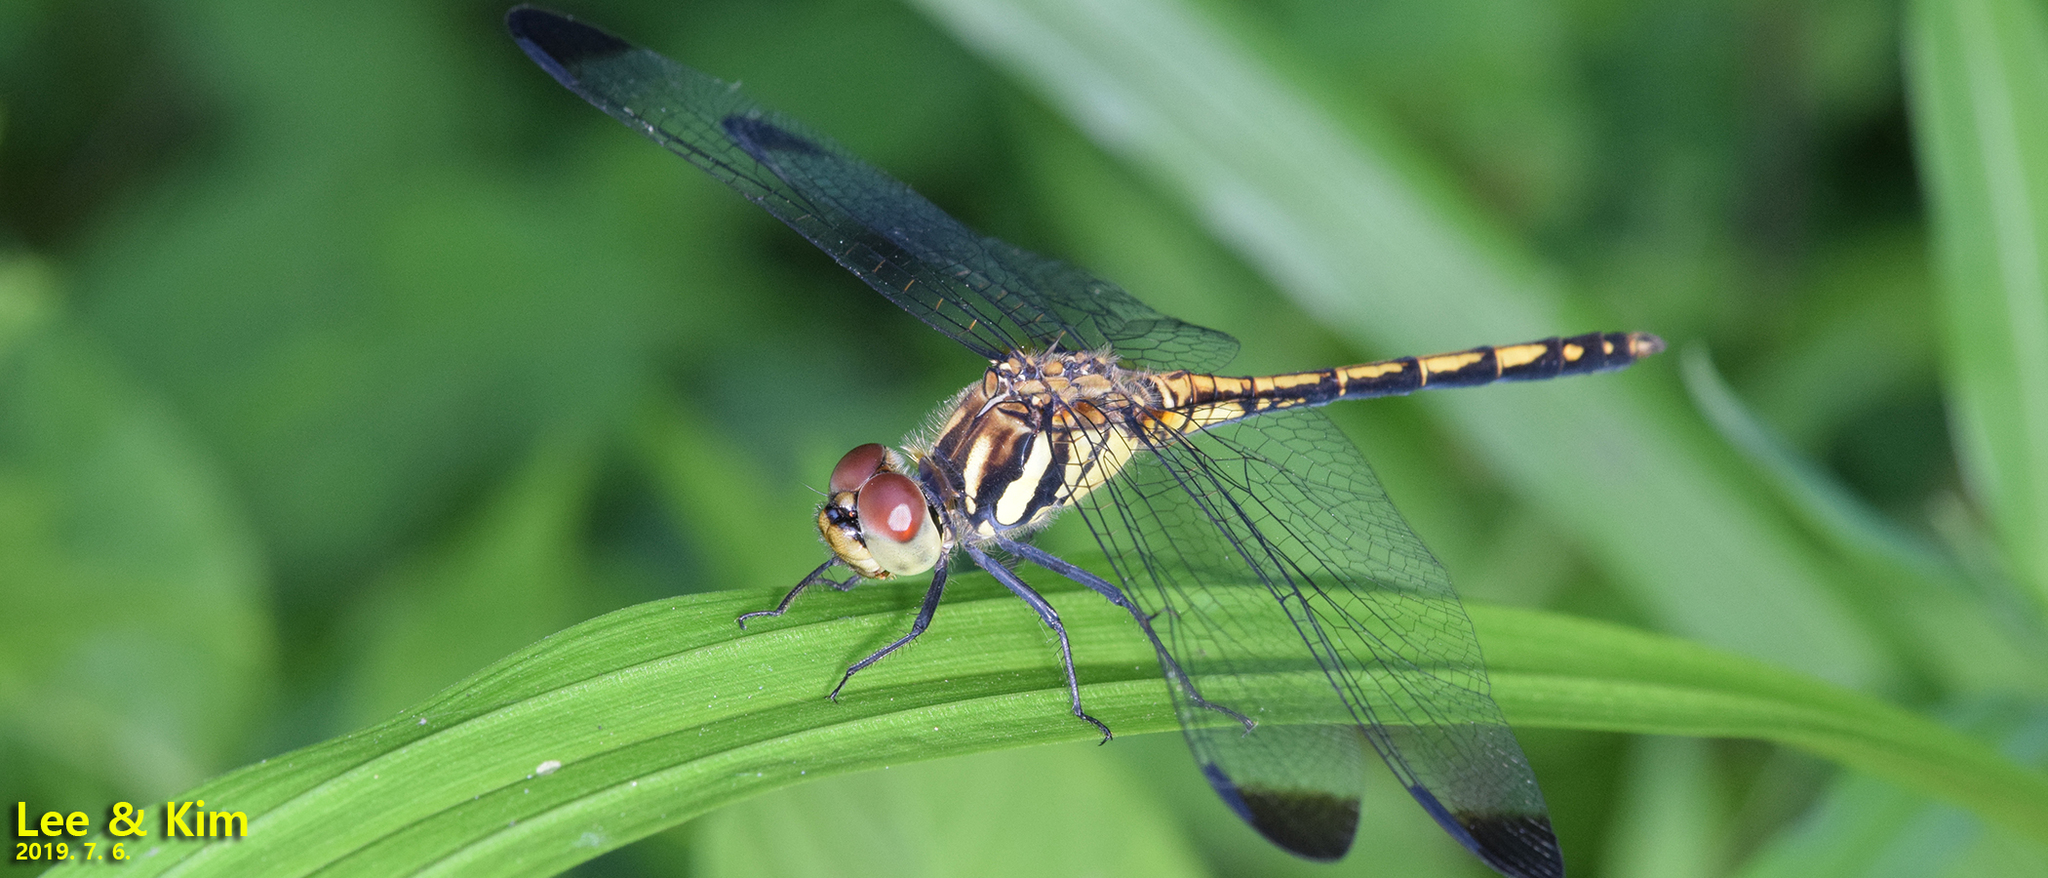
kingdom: Animalia
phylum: Arthropoda
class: Insecta
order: Odonata
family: Libellulidae
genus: Sympetrum
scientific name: Sympetrum infuscatum
